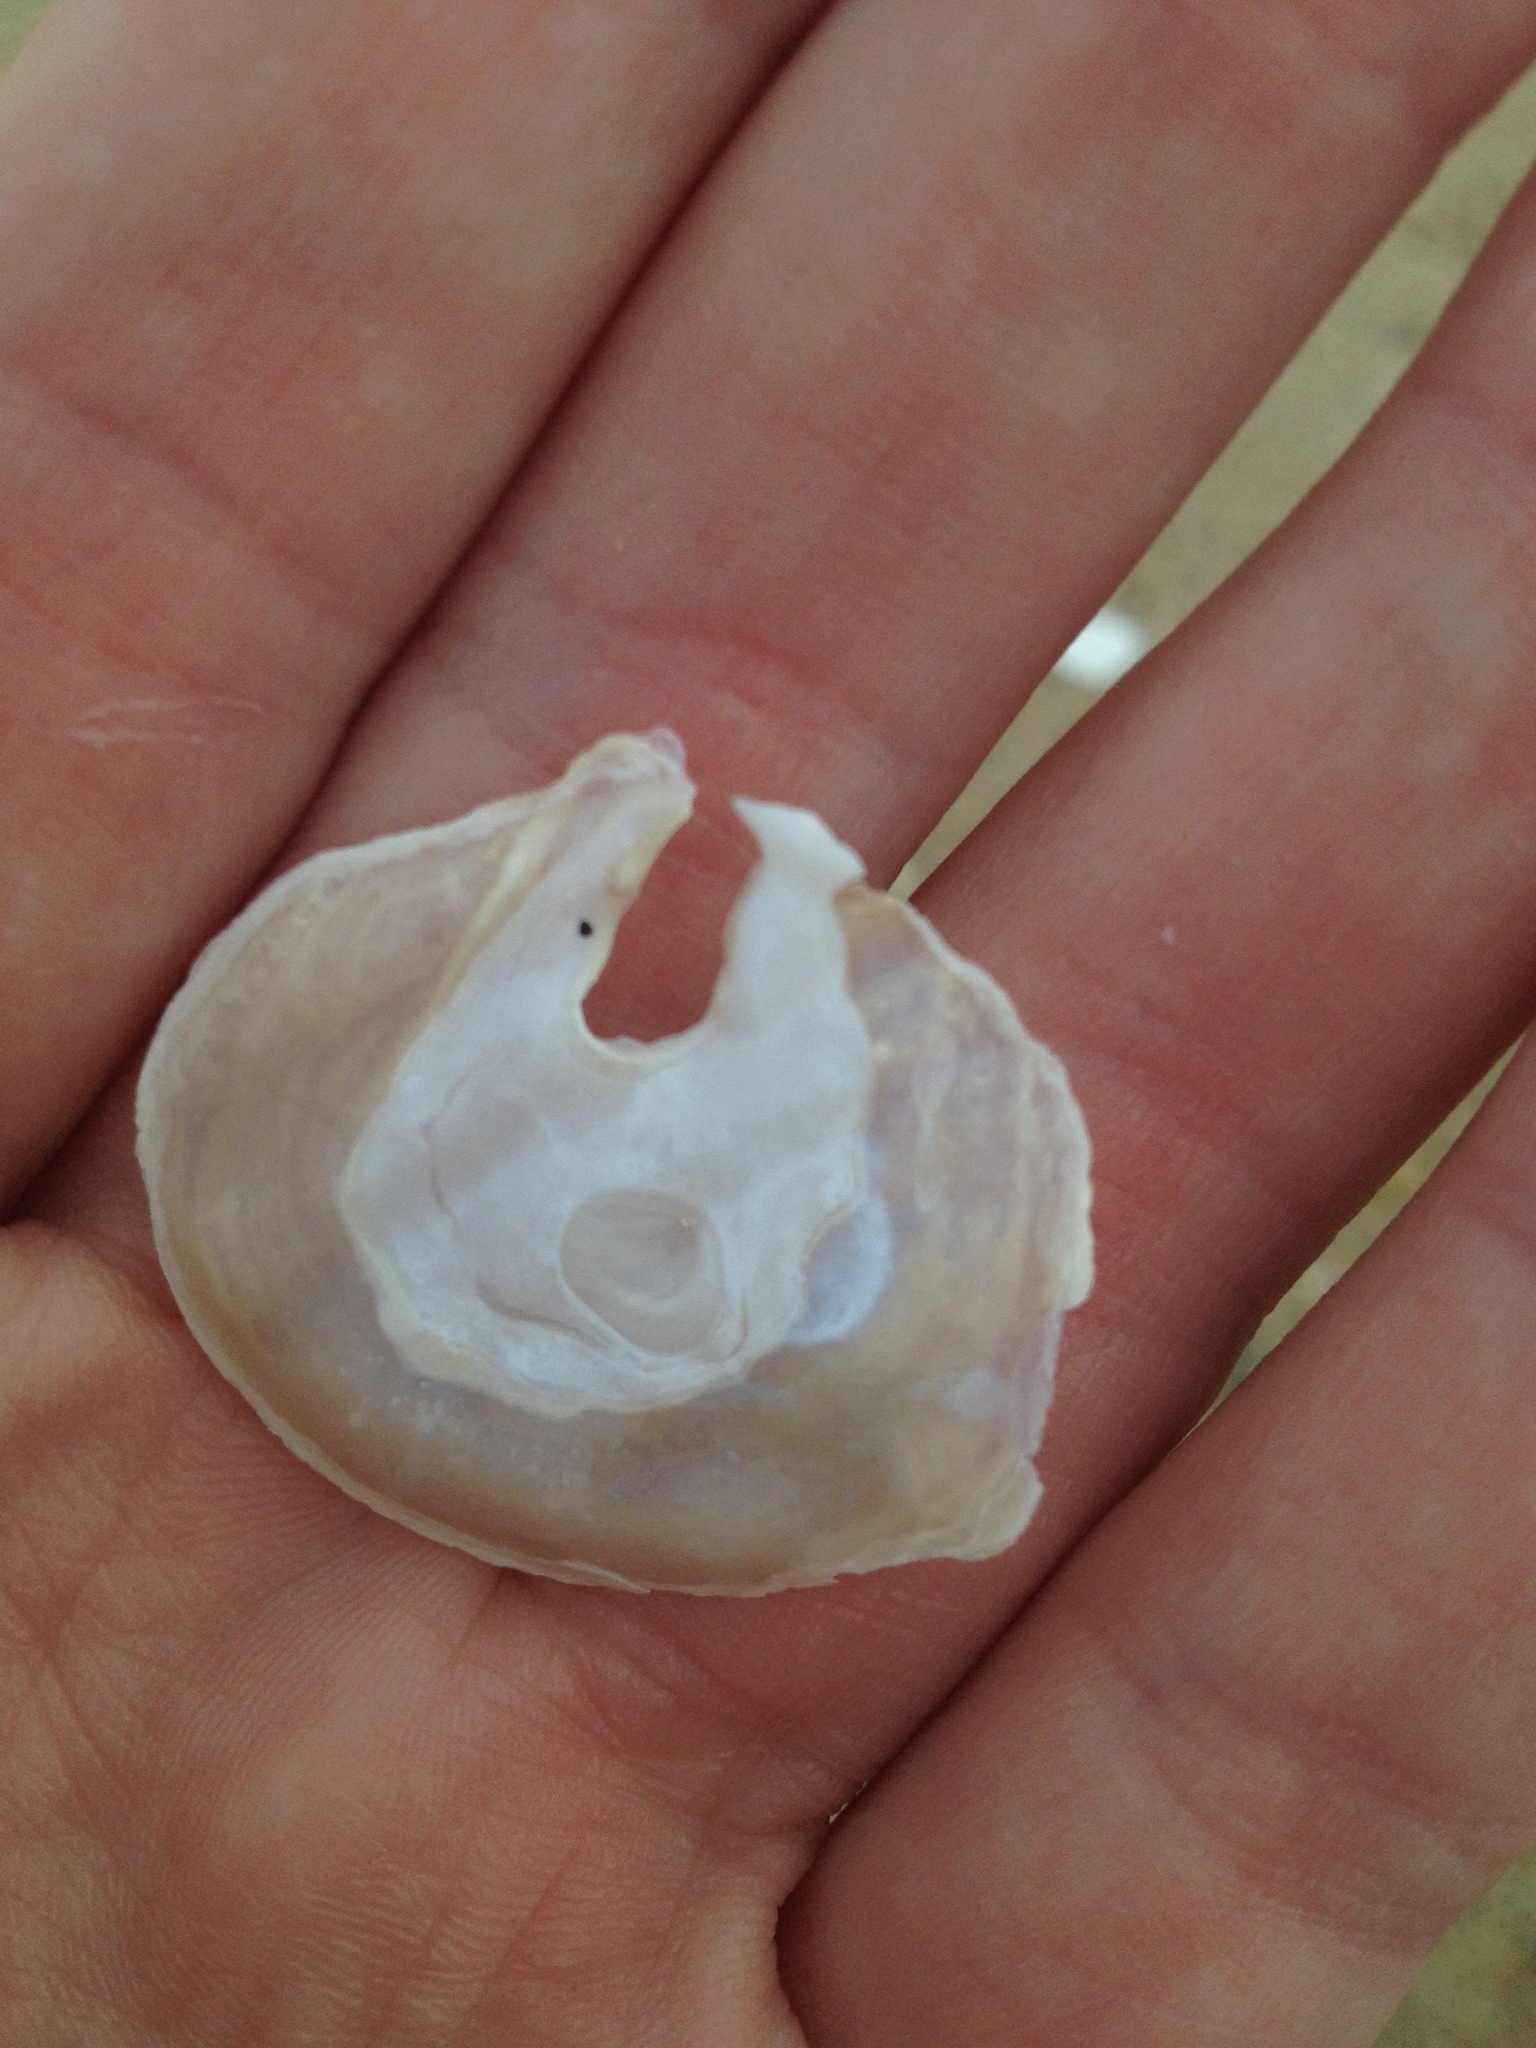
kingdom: Animalia
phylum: Mollusca
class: Bivalvia
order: Pectinida
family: Anomiidae
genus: Anomia
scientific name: Anomia simplex
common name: Common jingle shell
